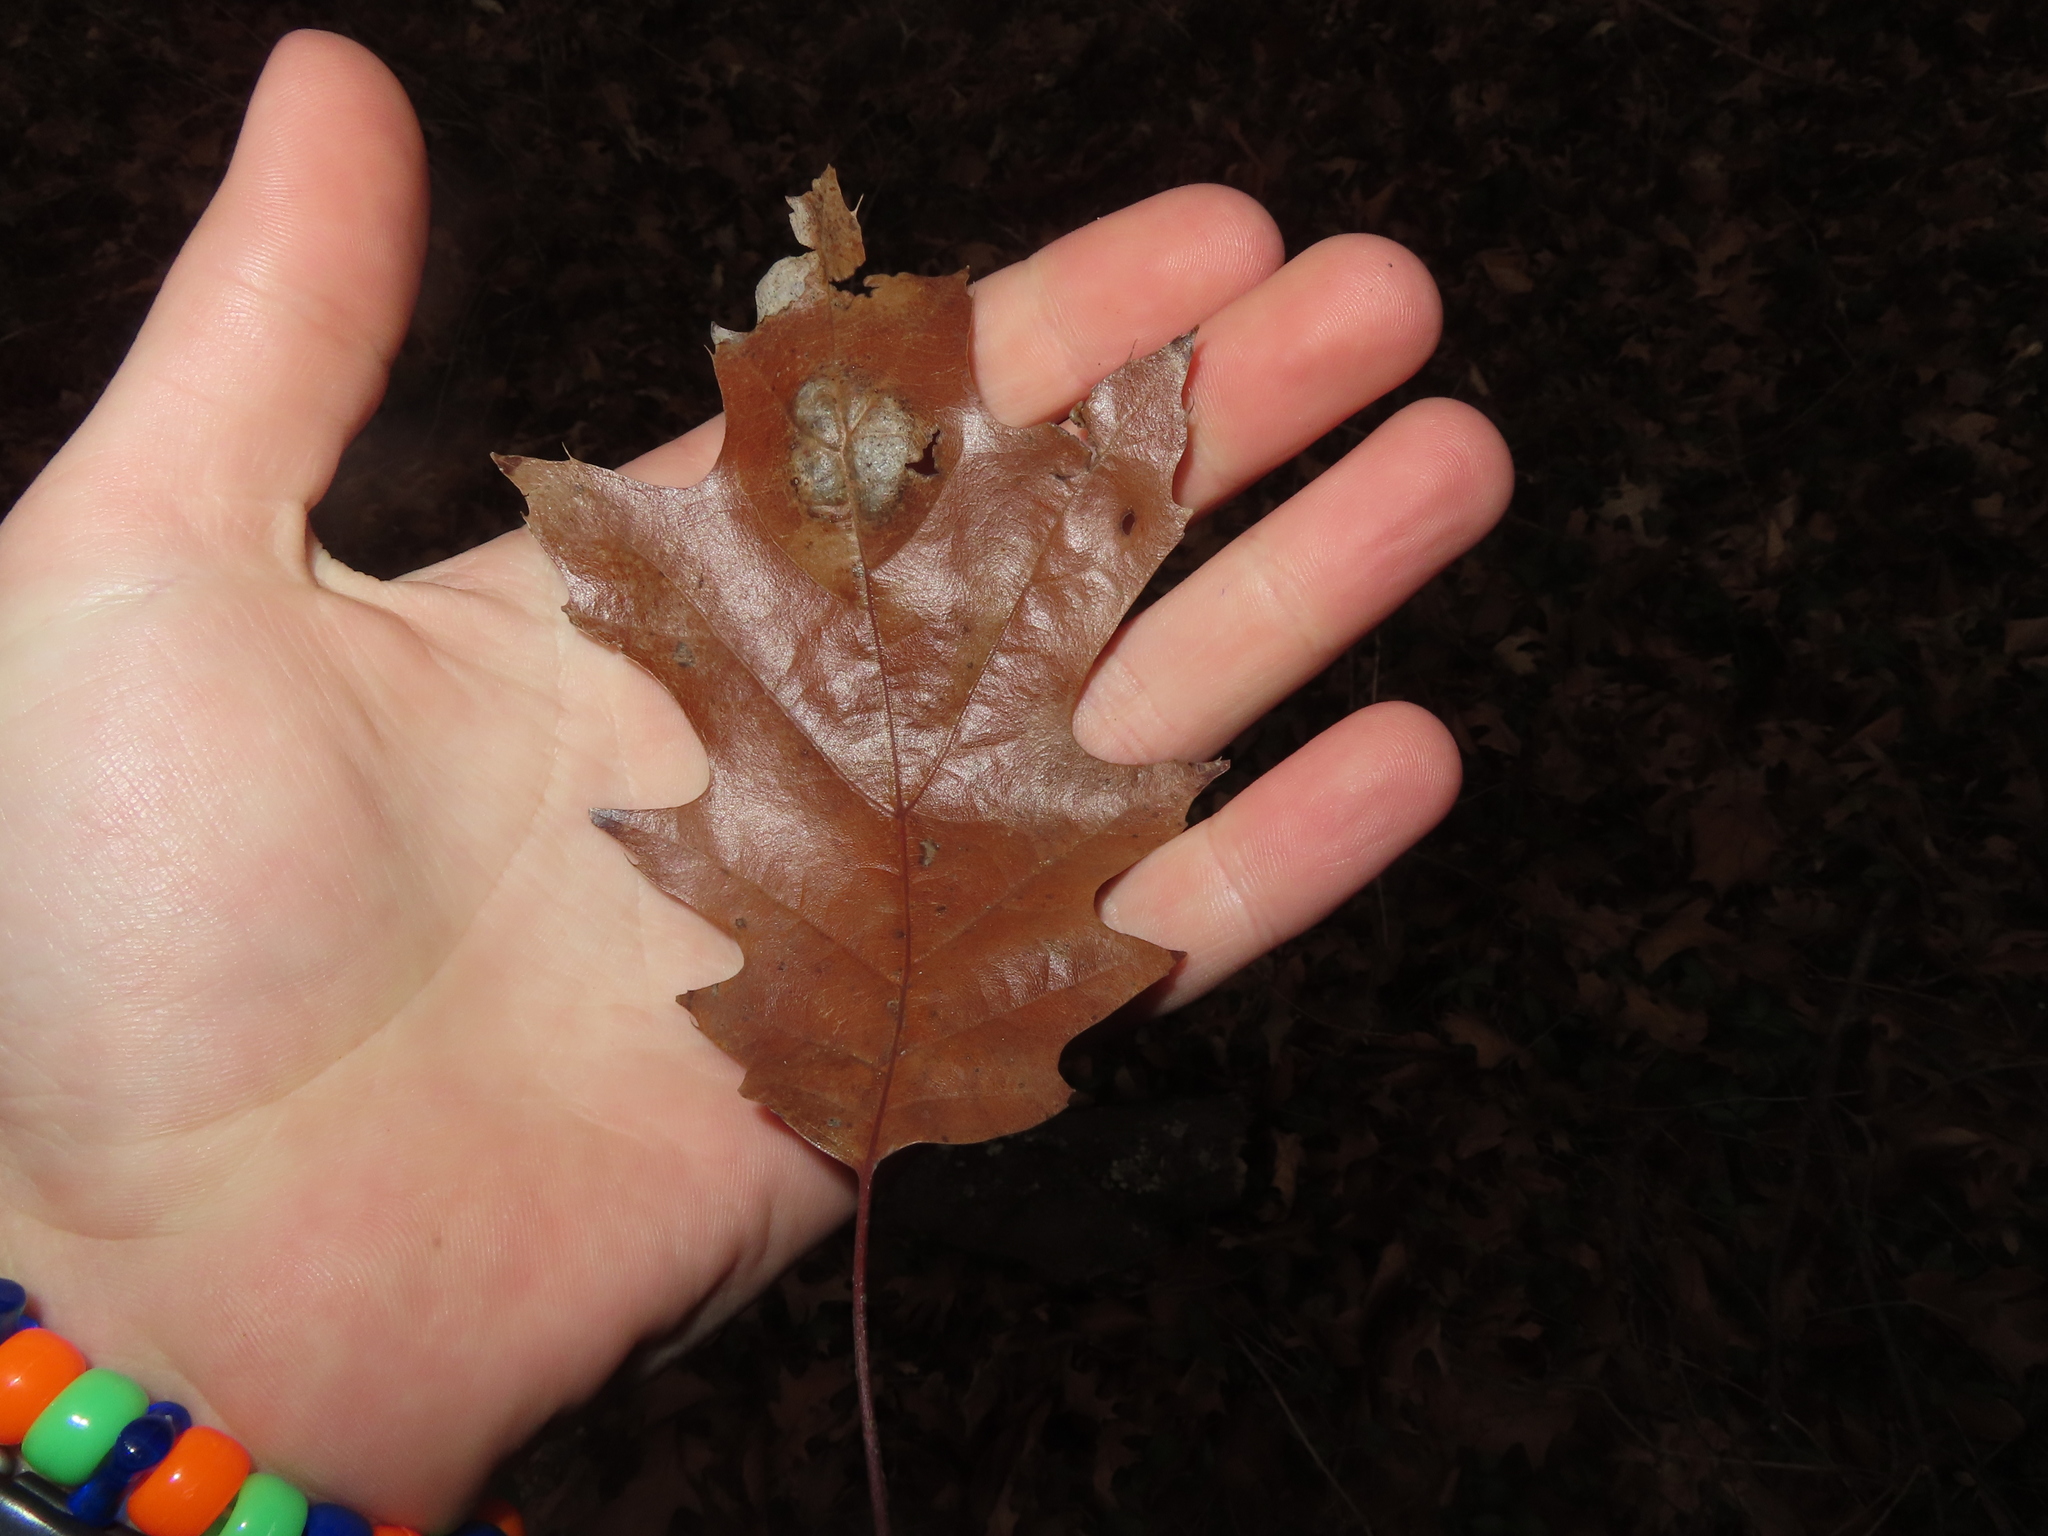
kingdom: Fungi
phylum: Ascomycota
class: Taphrinomycetes
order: Taphrinales
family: Taphrinaceae
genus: Taphrina
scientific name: Taphrina caerulescens
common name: Oak leaf blister
